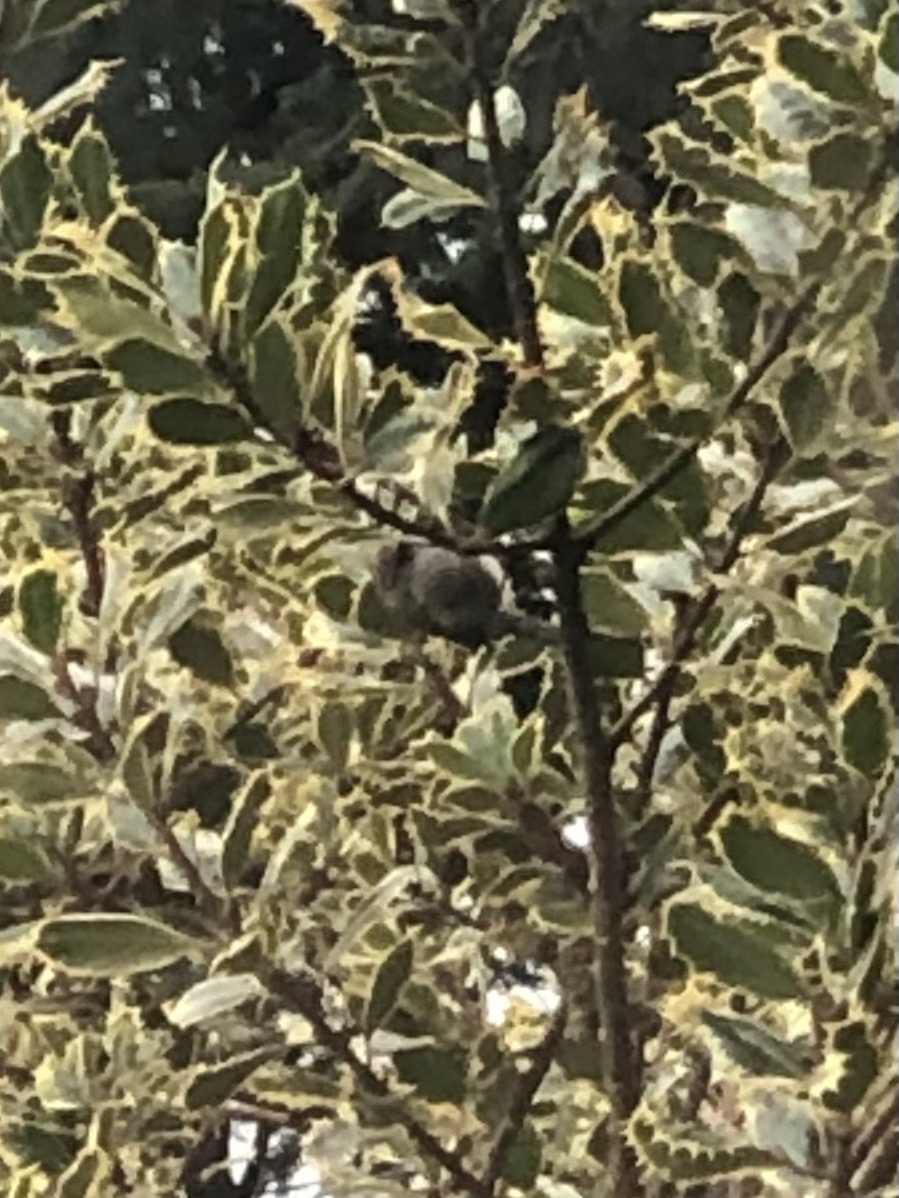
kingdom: Animalia
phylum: Chordata
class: Aves
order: Passeriformes
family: Aegithalidae
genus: Psaltriparus
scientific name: Psaltriparus minimus
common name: American bushtit
